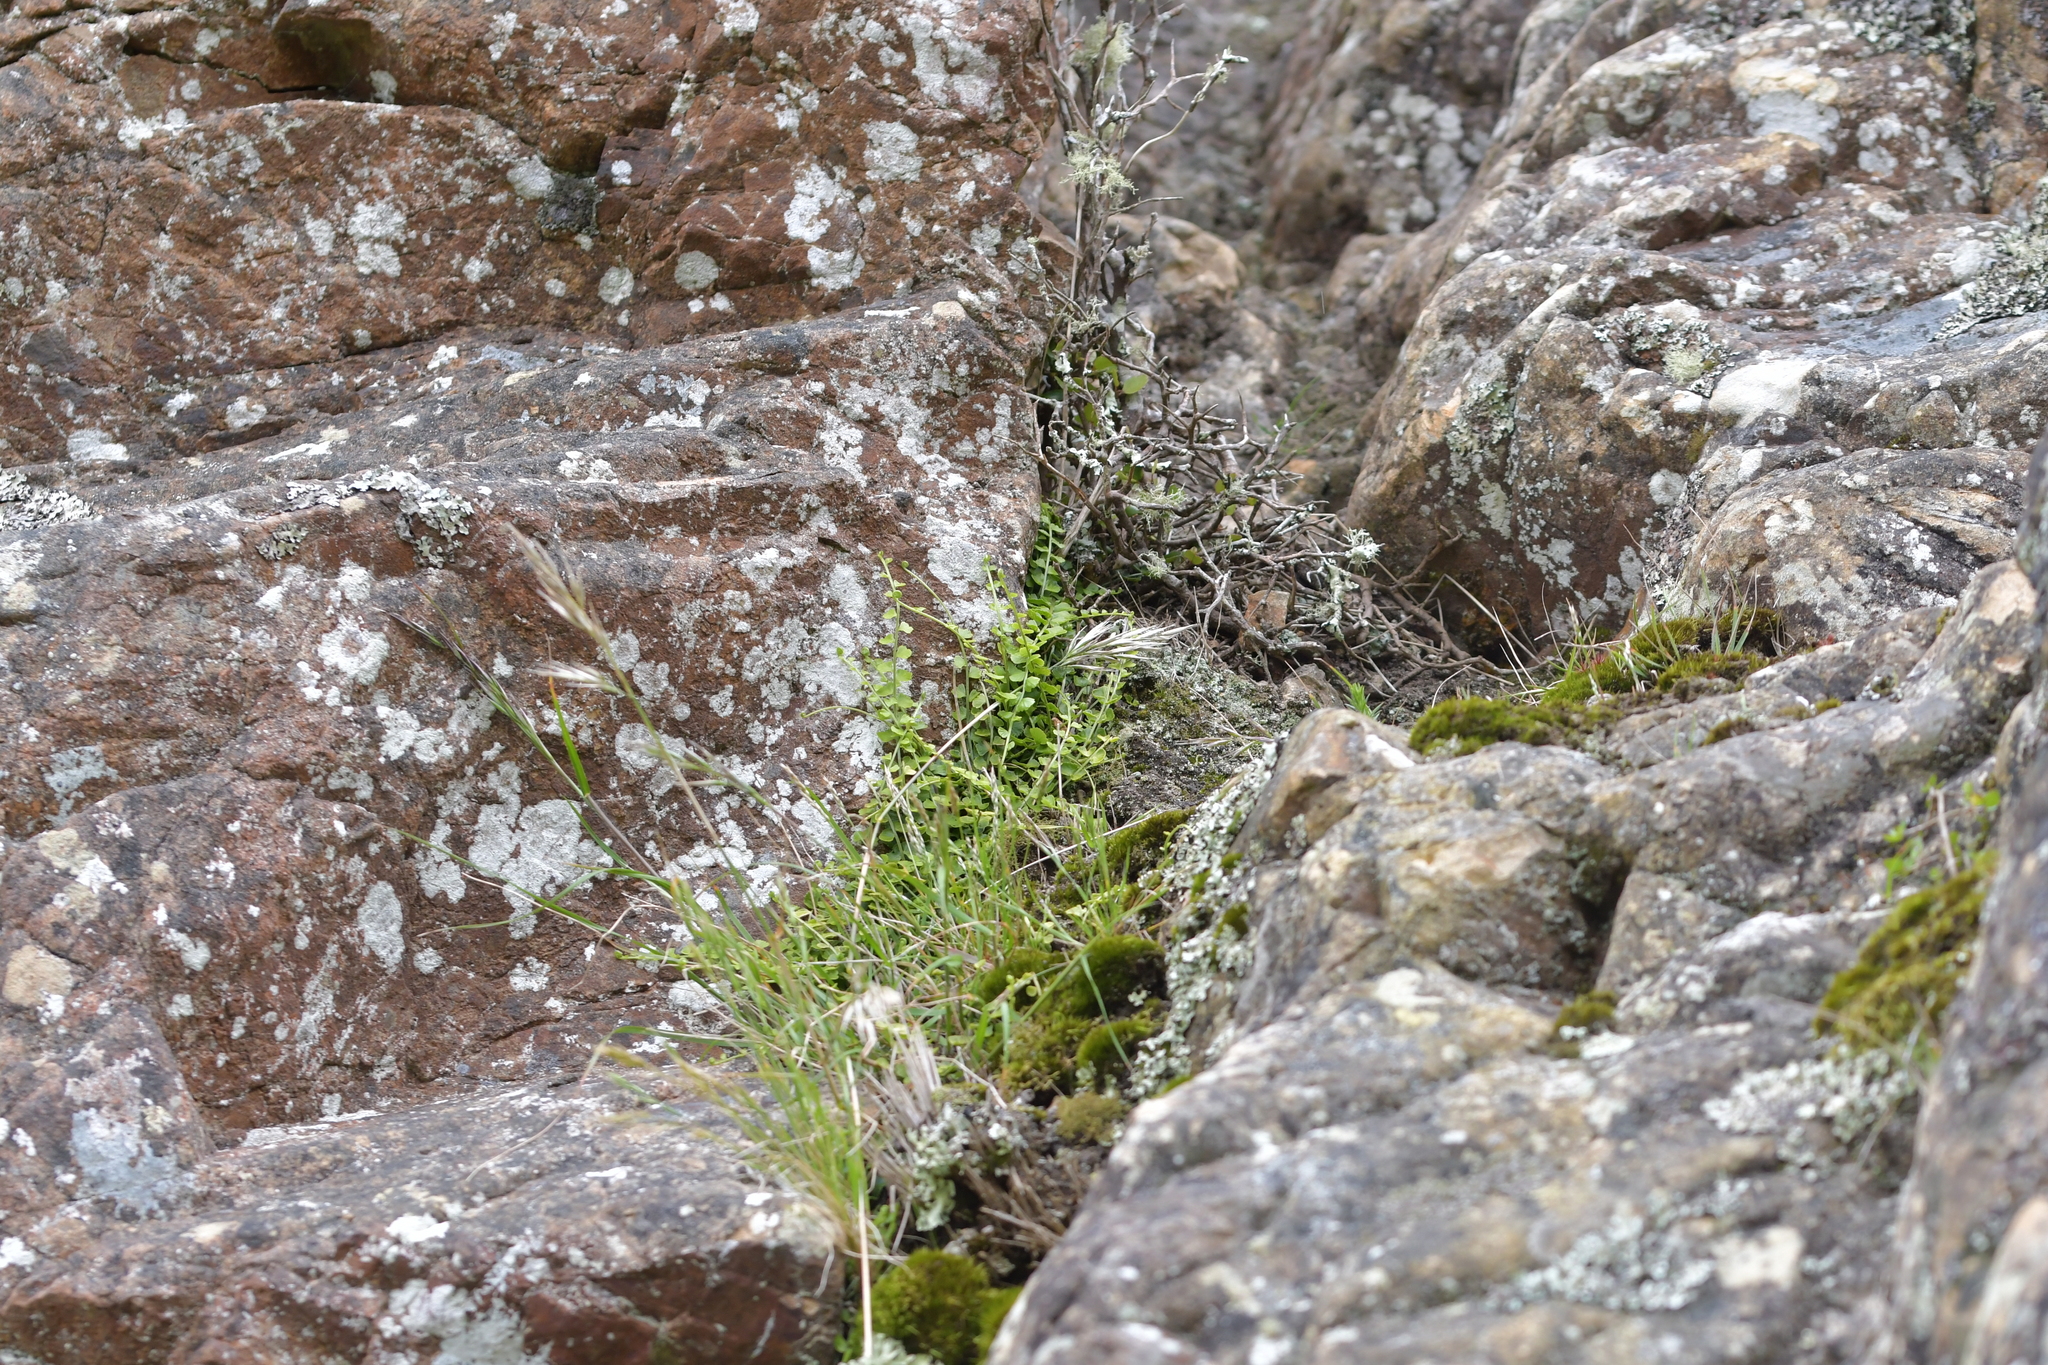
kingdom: Plantae
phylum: Tracheophyta
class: Polypodiopsida
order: Polypodiales
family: Aspleniaceae
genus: Asplenium
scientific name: Asplenium flabellifolium
